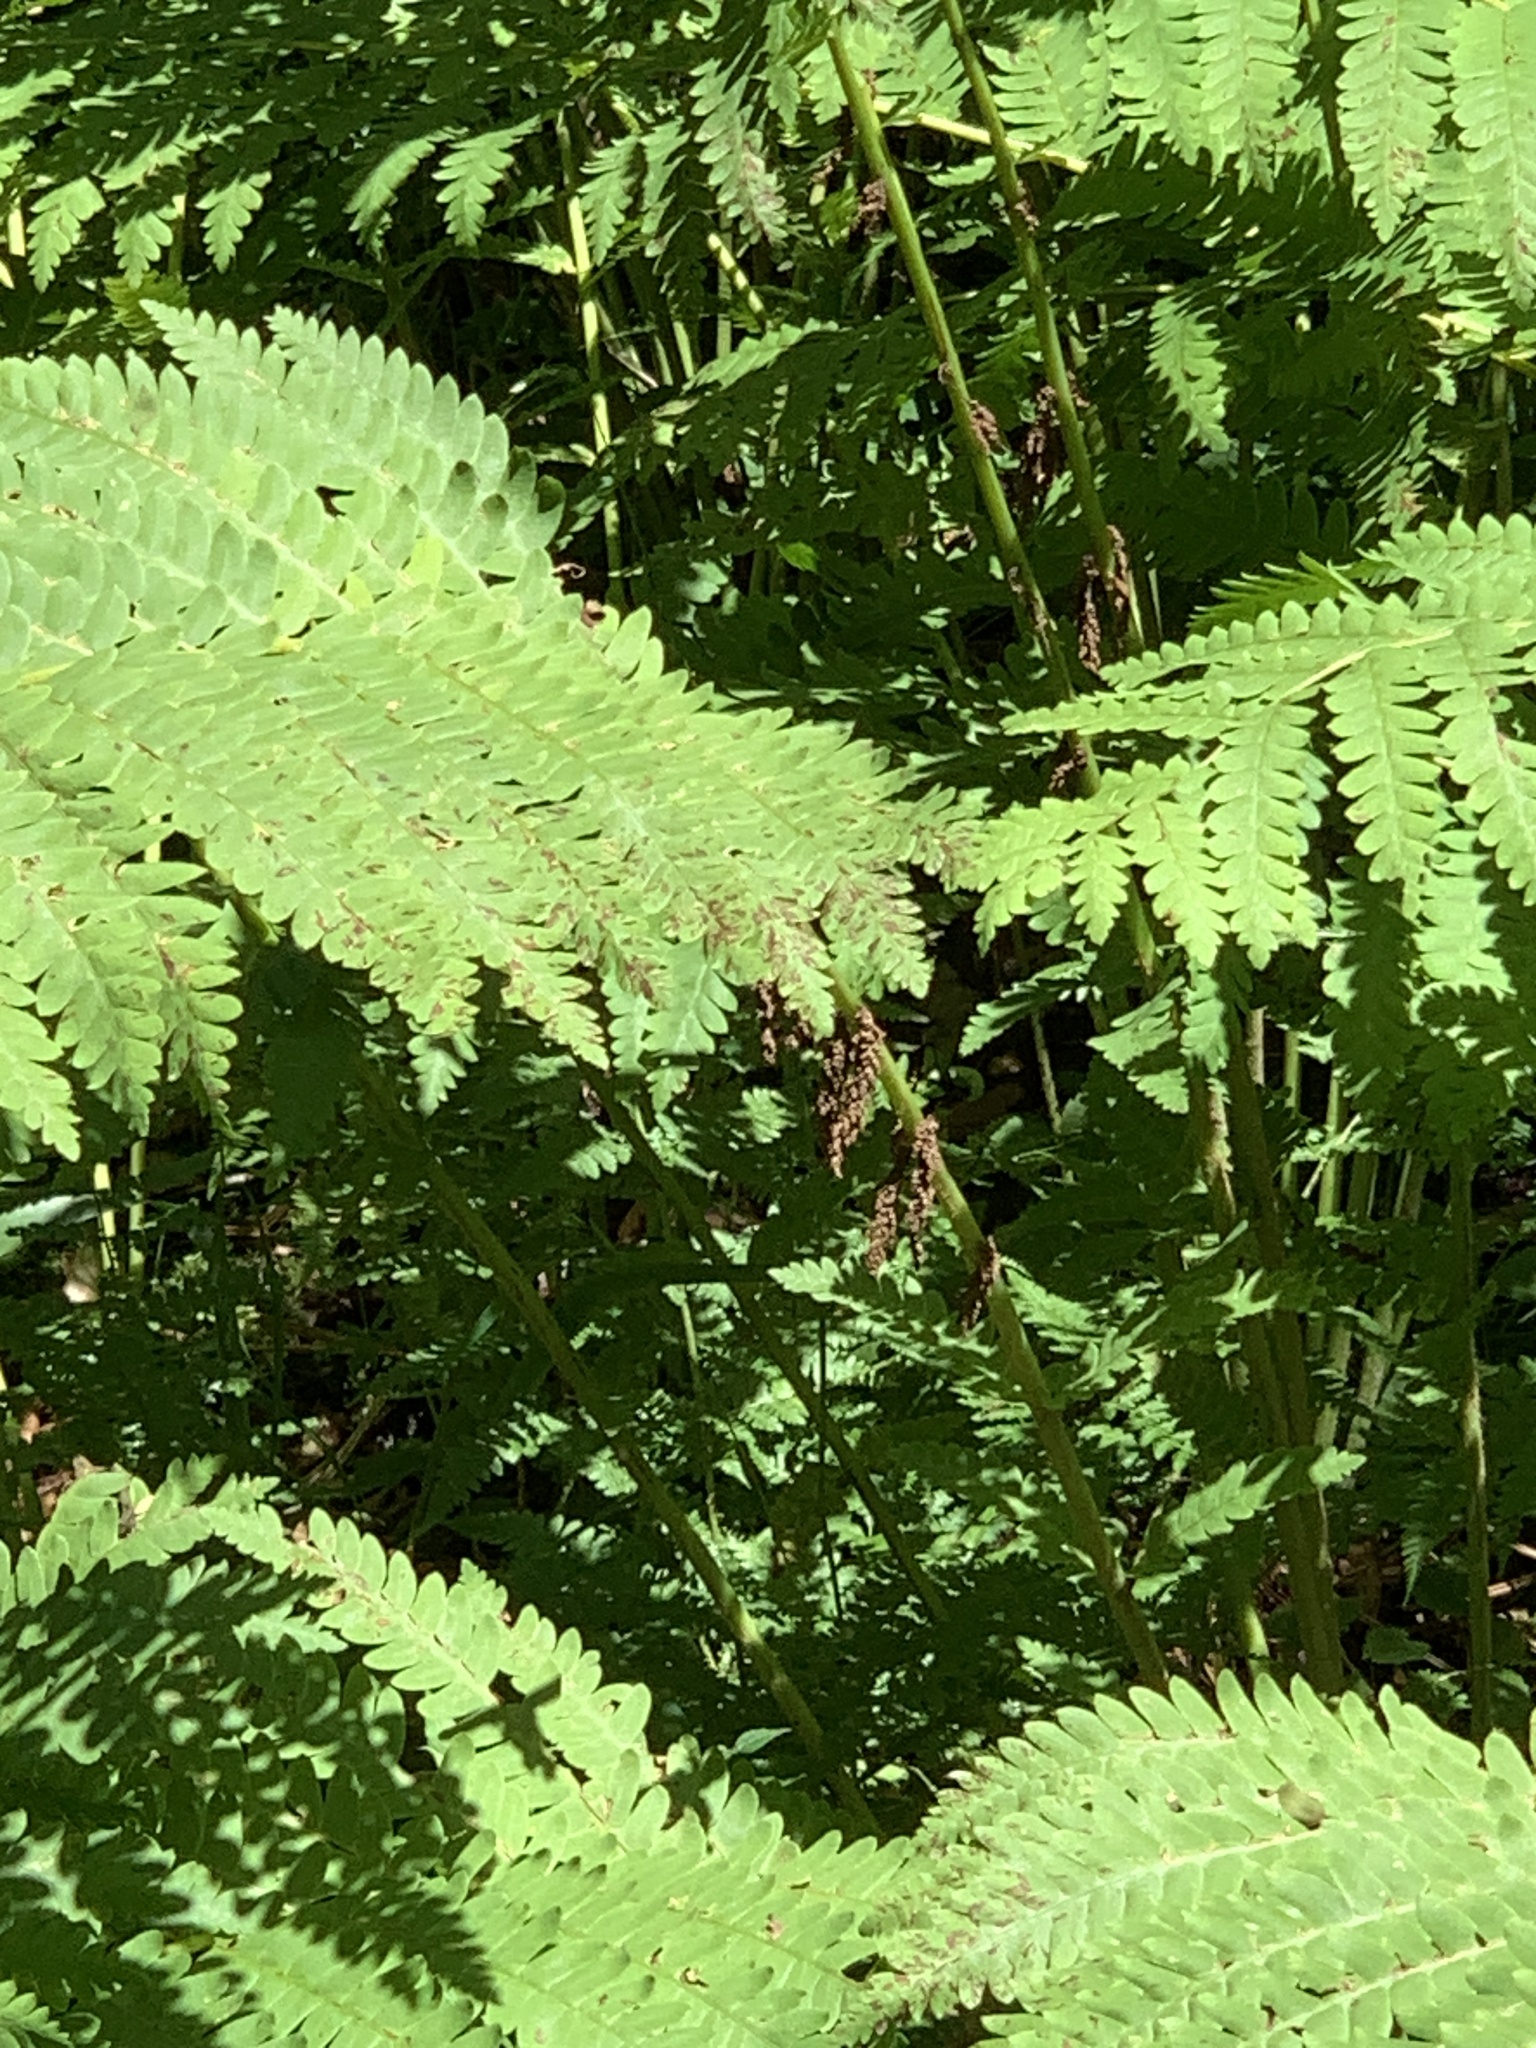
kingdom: Plantae
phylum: Tracheophyta
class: Polypodiopsida
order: Osmundales
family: Osmundaceae
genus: Claytosmunda
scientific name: Claytosmunda claytoniana
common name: Clayton's fern
